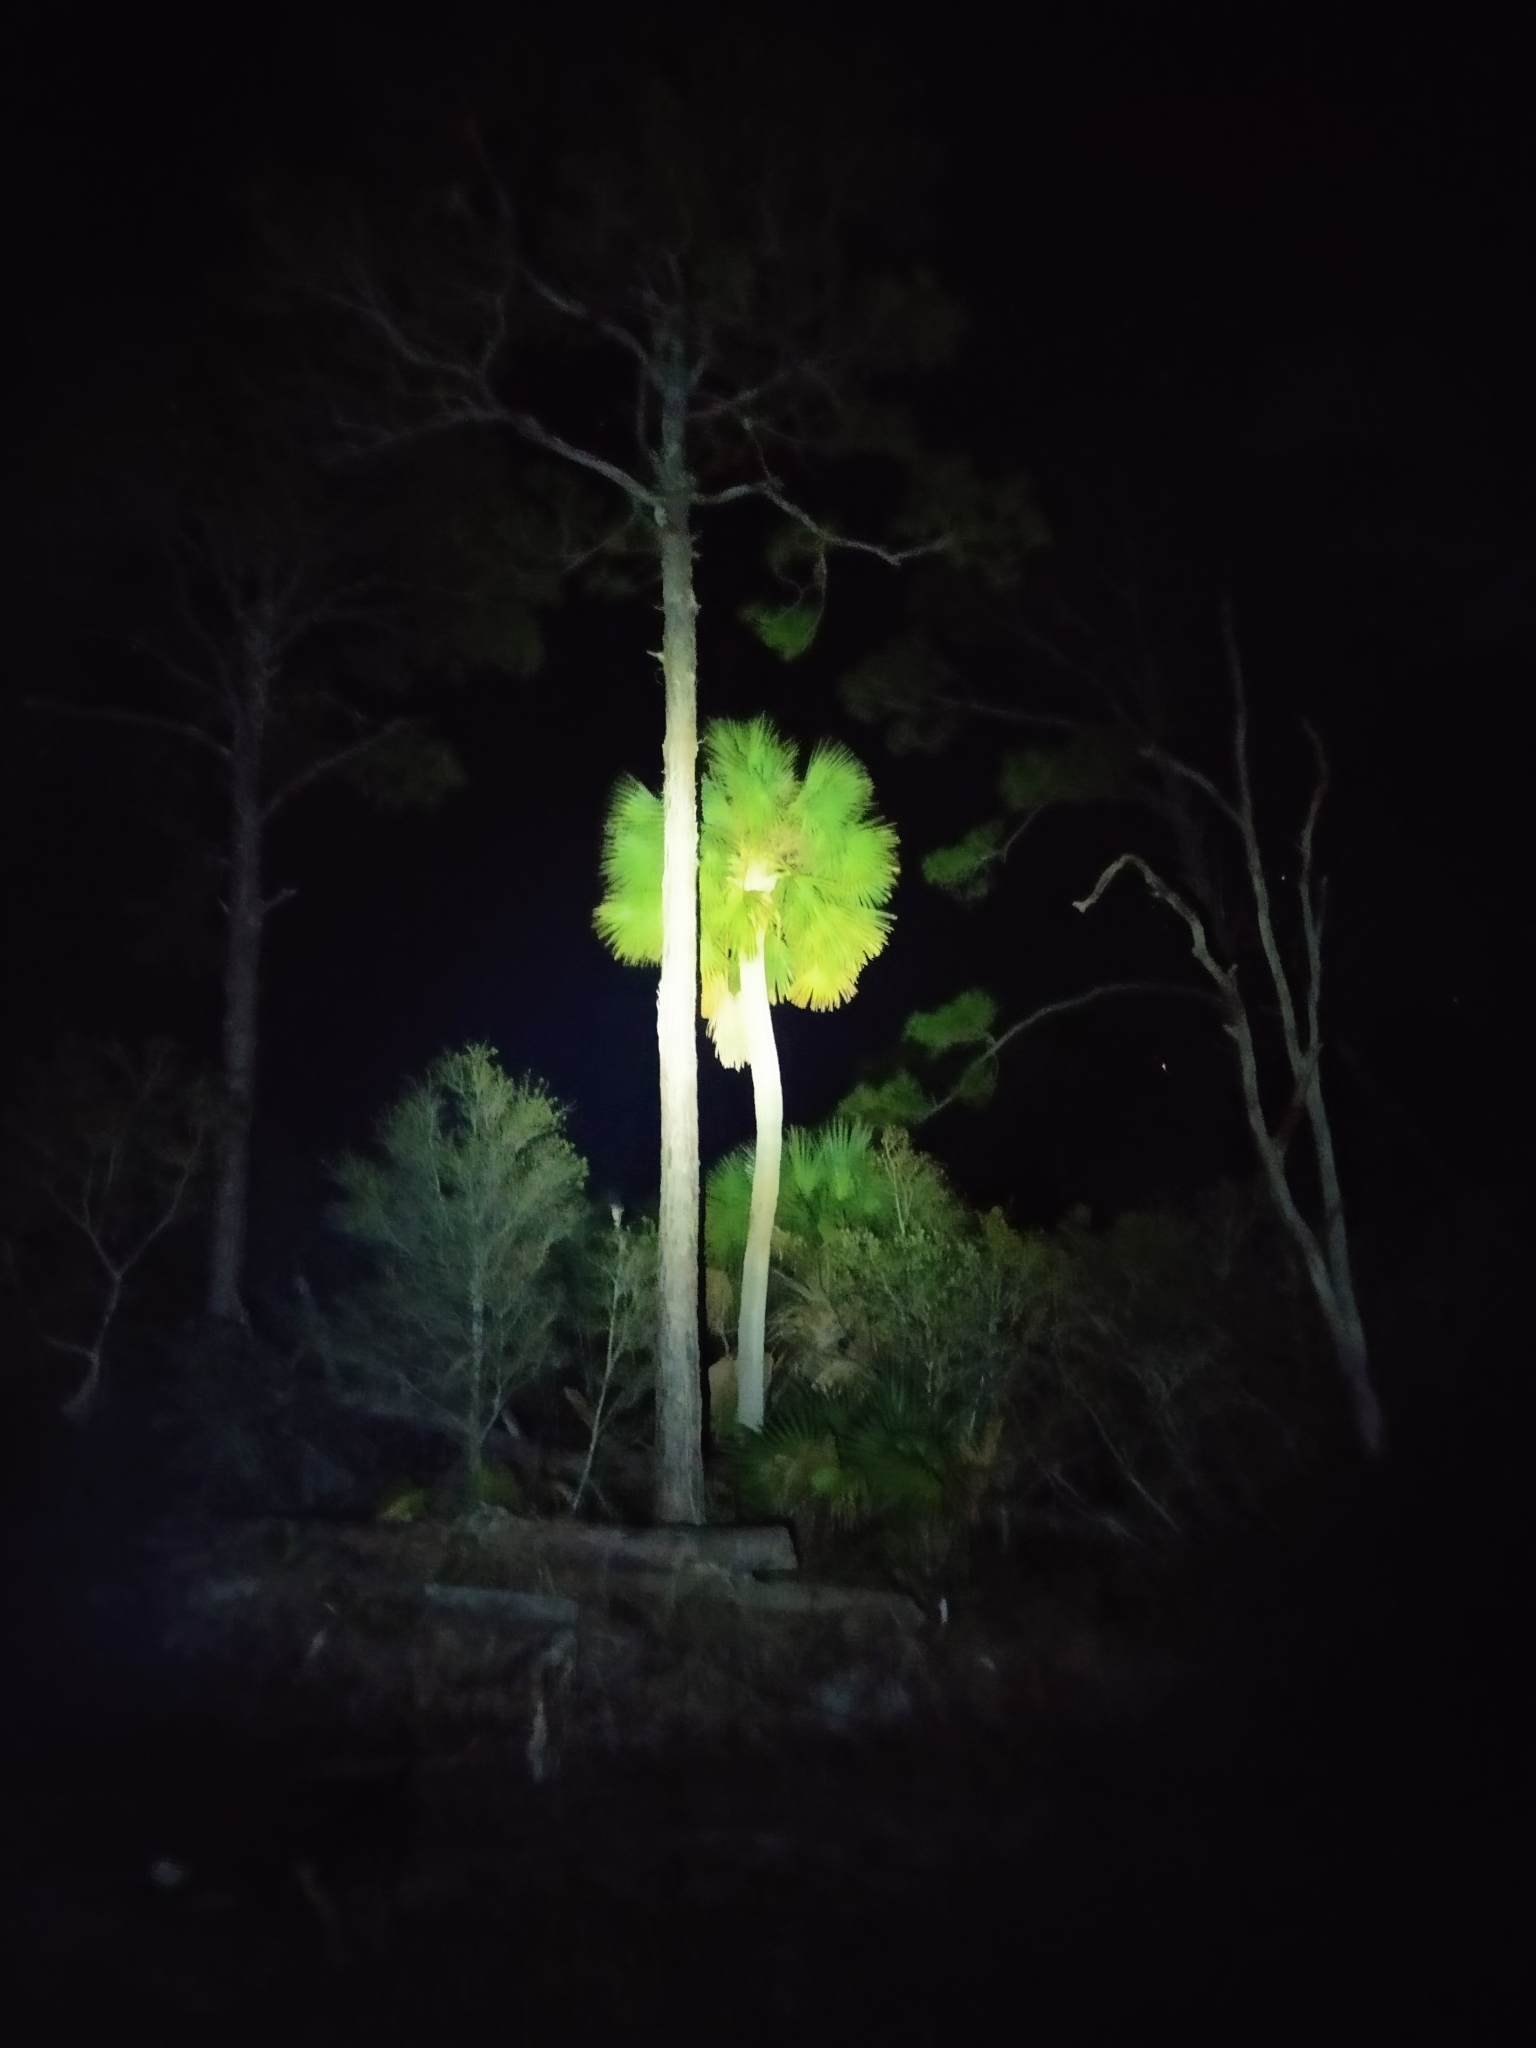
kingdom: Plantae
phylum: Tracheophyta
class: Liliopsida
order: Arecales
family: Arecaceae
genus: Sabal
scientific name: Sabal palmetto
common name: Blue palmetto
